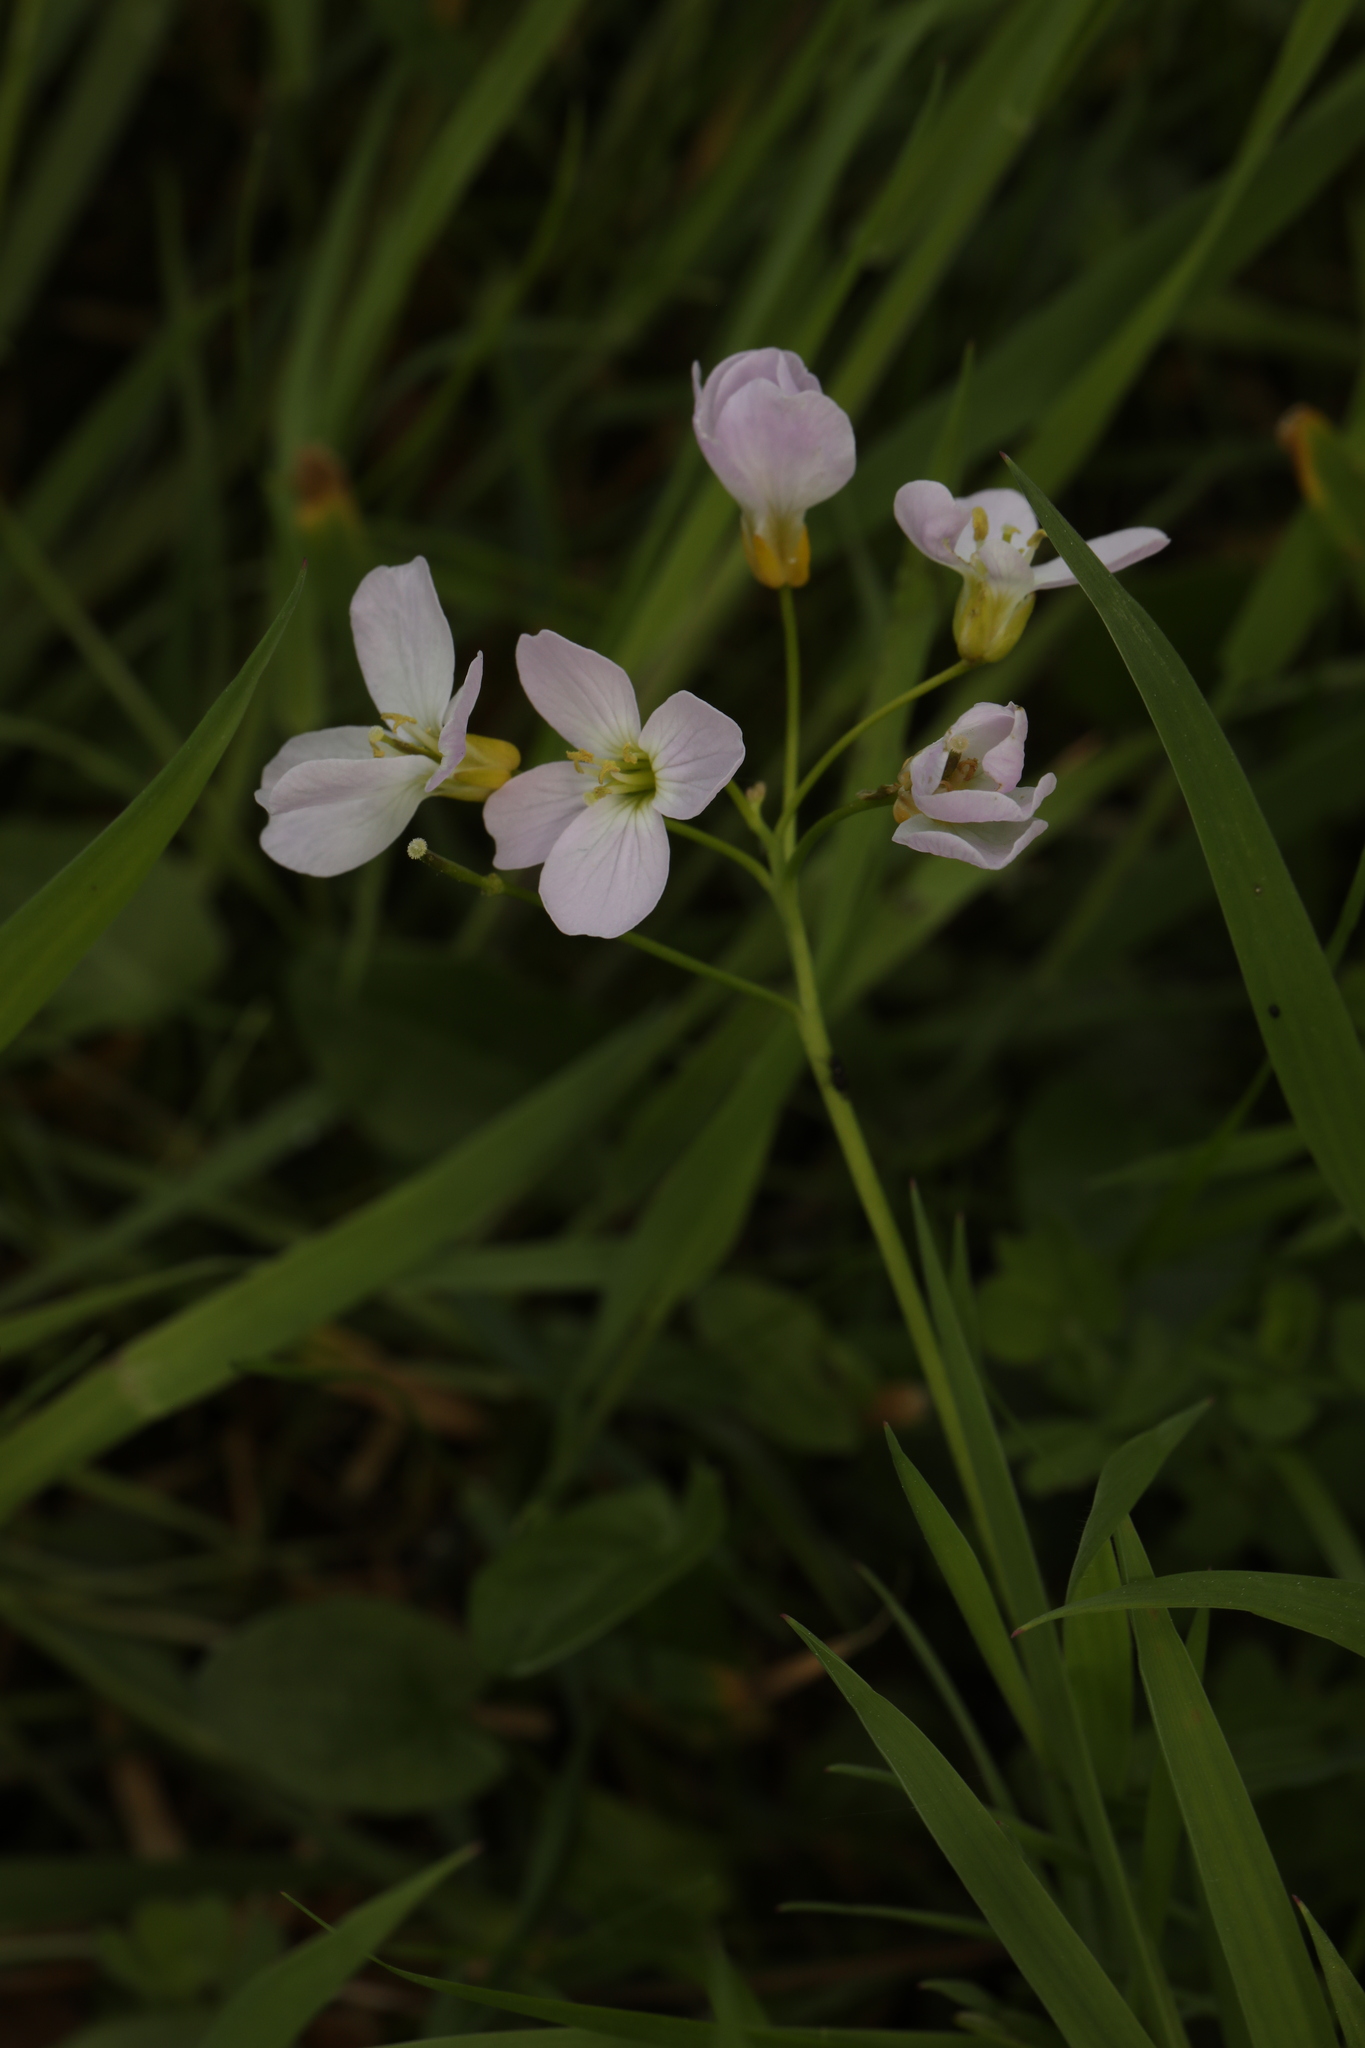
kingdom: Plantae
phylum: Tracheophyta
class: Magnoliopsida
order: Brassicales
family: Brassicaceae
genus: Cardamine
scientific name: Cardamine pratensis
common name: Cuckoo flower
